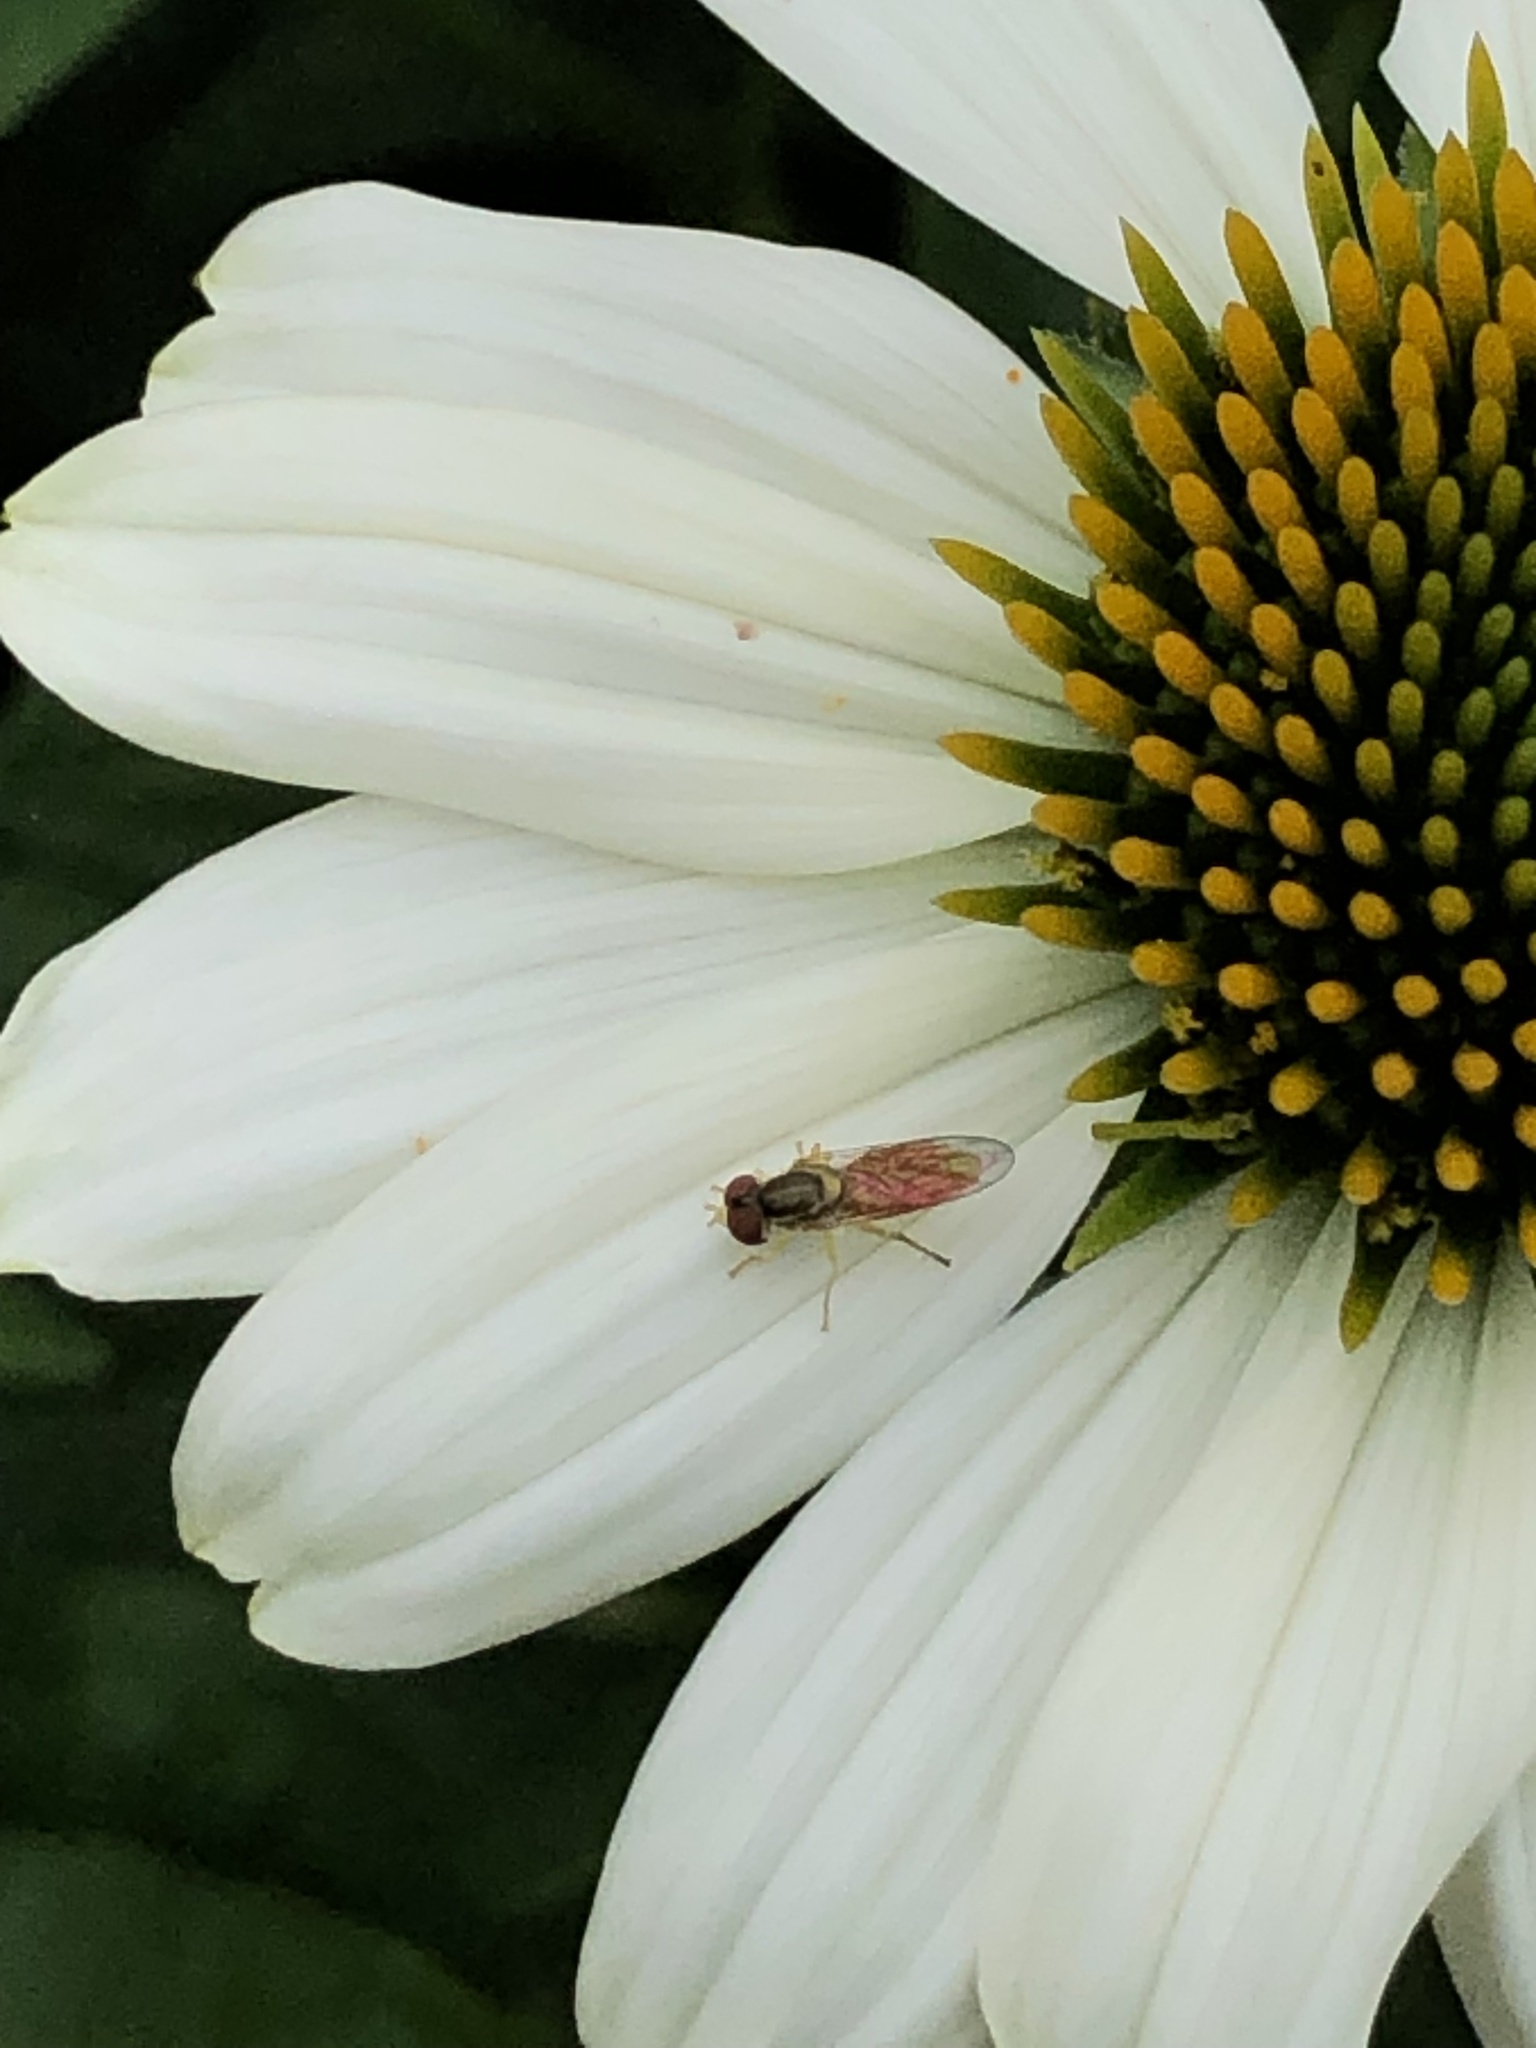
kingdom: Animalia
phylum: Arthropoda
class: Insecta
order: Diptera
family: Syrphidae
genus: Toxomerus
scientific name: Toxomerus marginatus
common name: Syrphid fly
